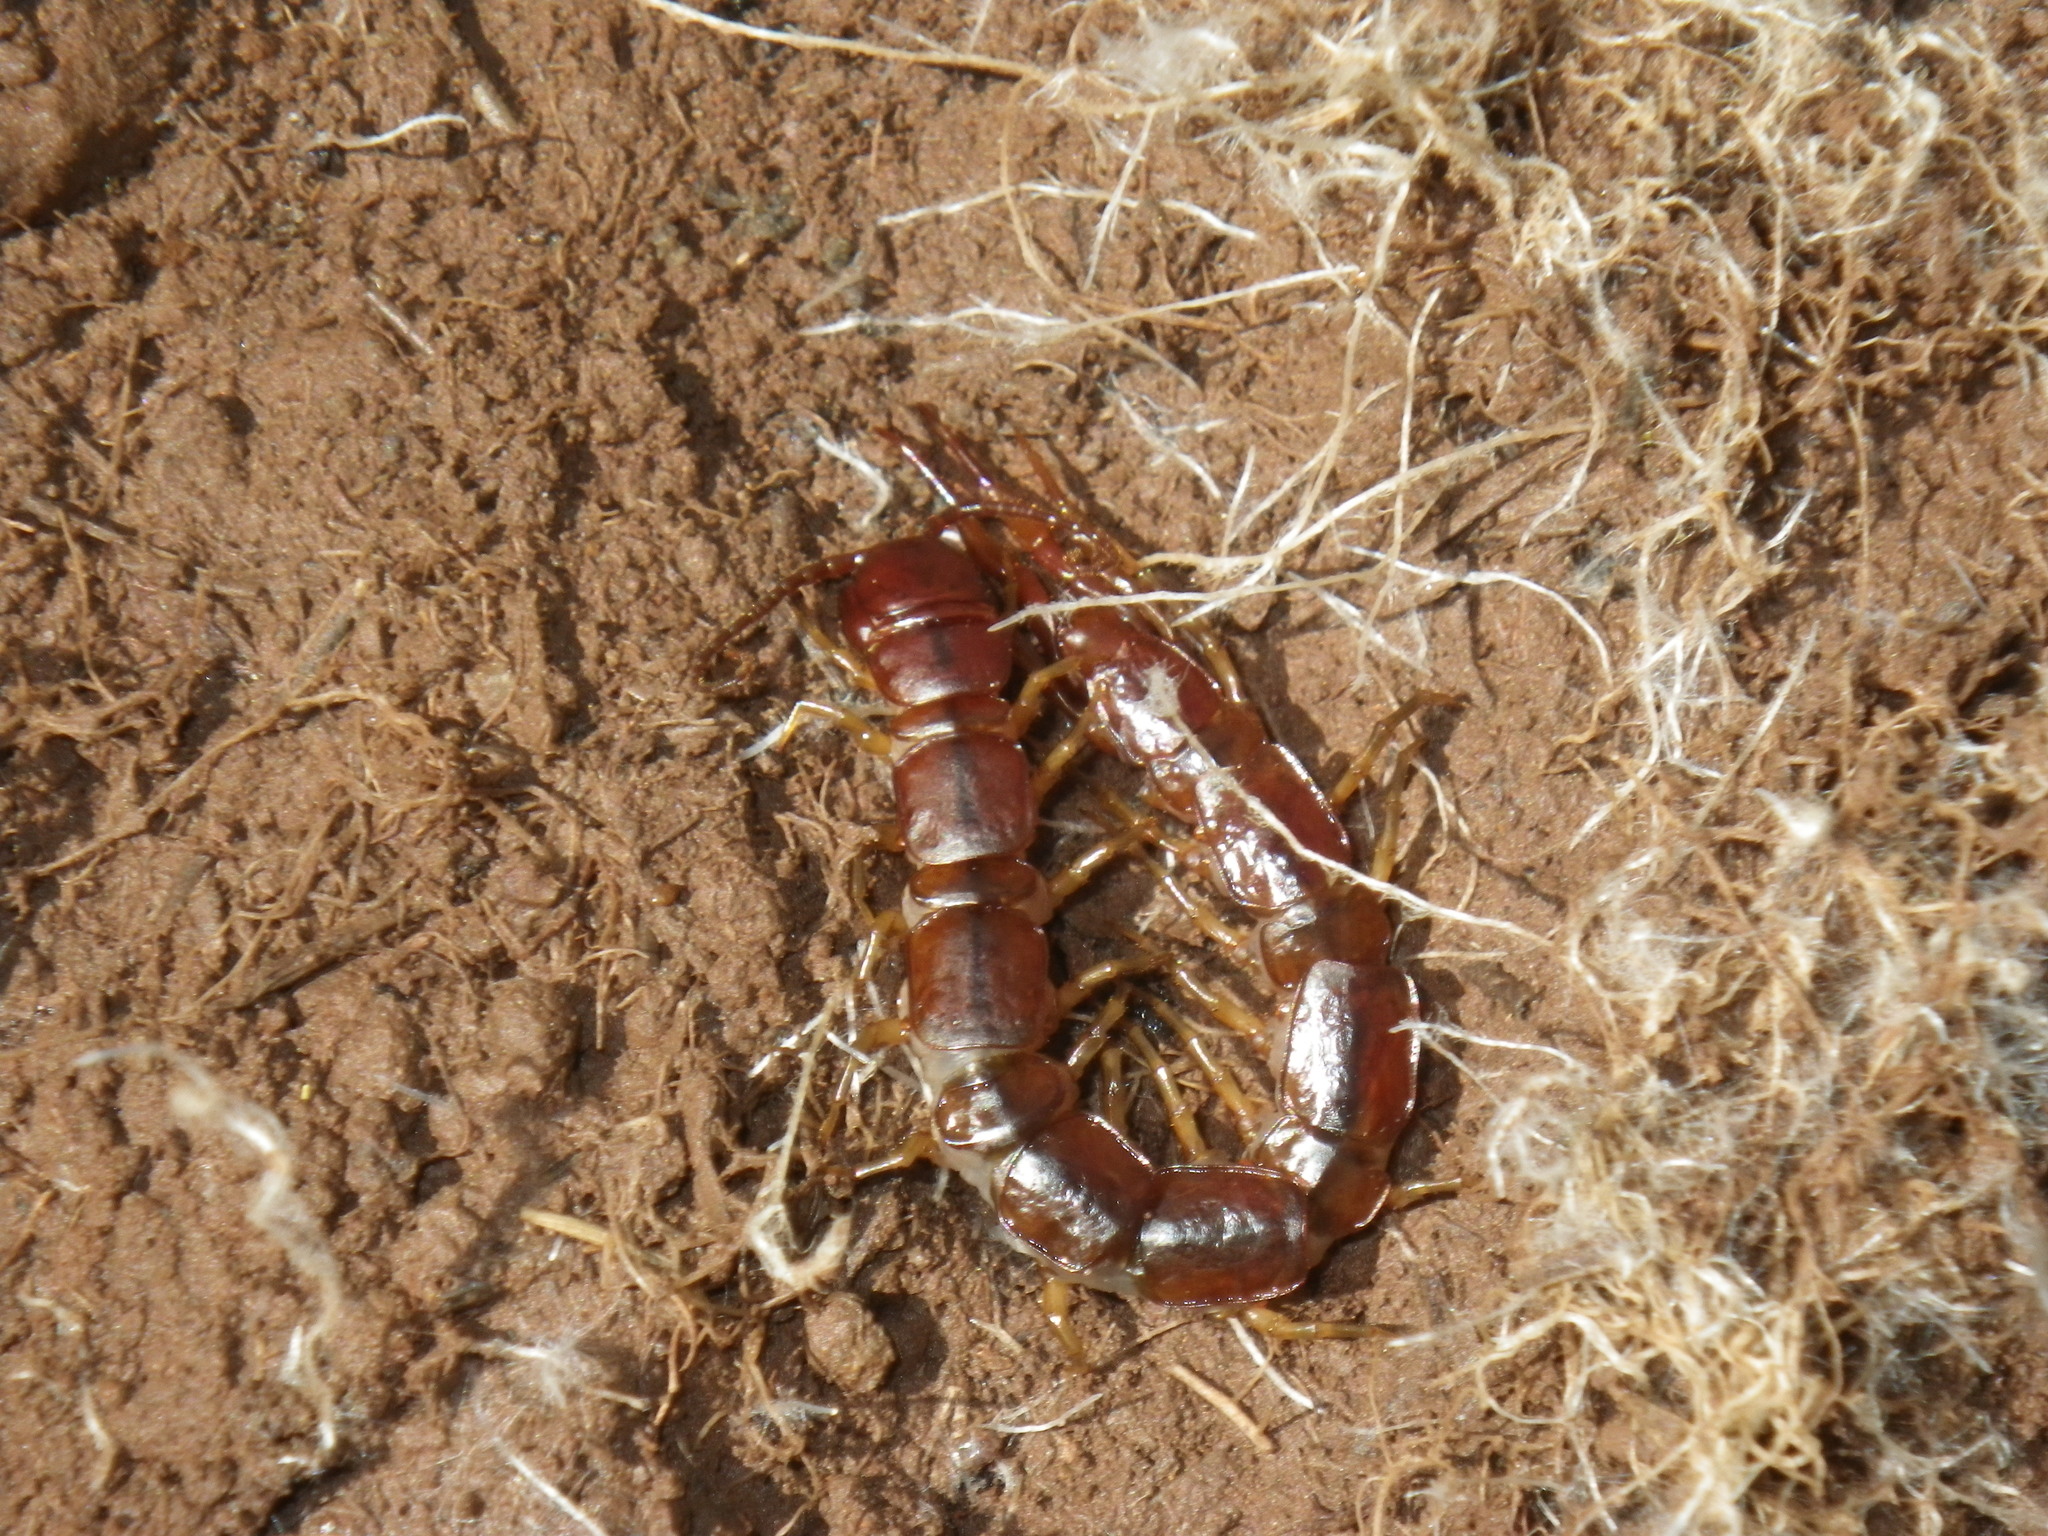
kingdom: Animalia
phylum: Arthropoda
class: Chilopoda
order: Lithobiomorpha
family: Lithobiidae
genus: Pseudolithobius
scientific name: Pseudolithobius megaloporus
